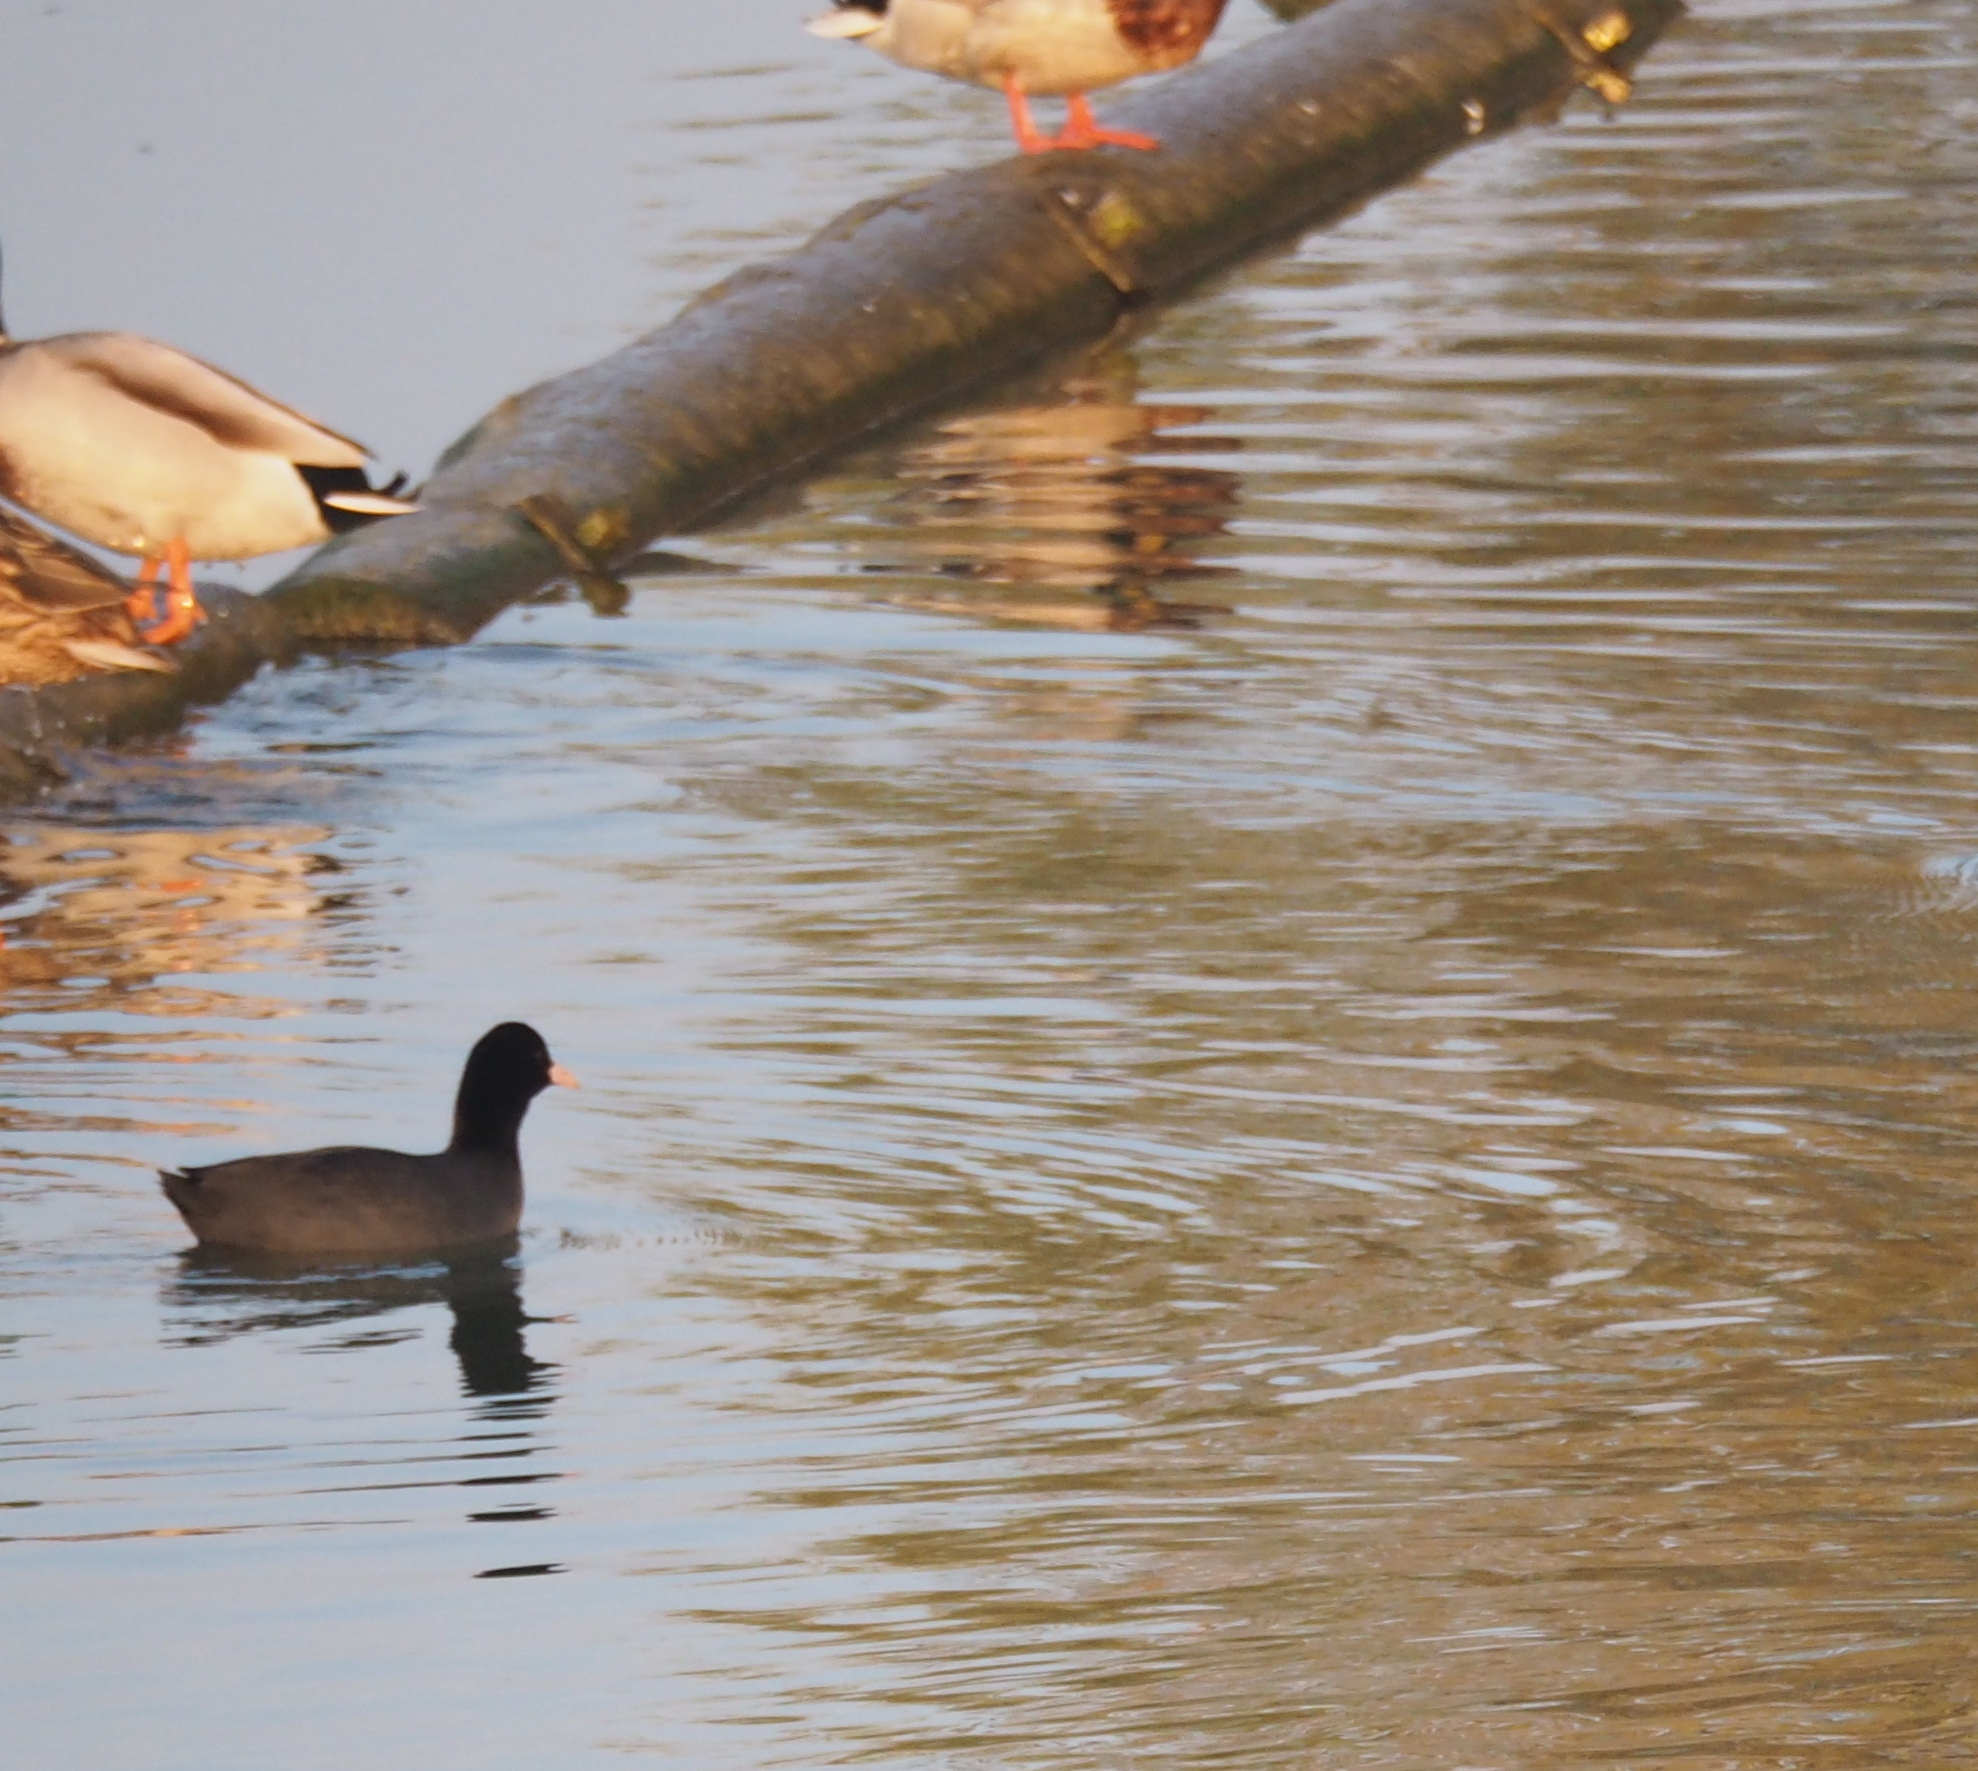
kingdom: Animalia
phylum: Chordata
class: Aves
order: Gruiformes
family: Rallidae
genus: Fulica
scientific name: Fulica atra
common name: Eurasian coot
